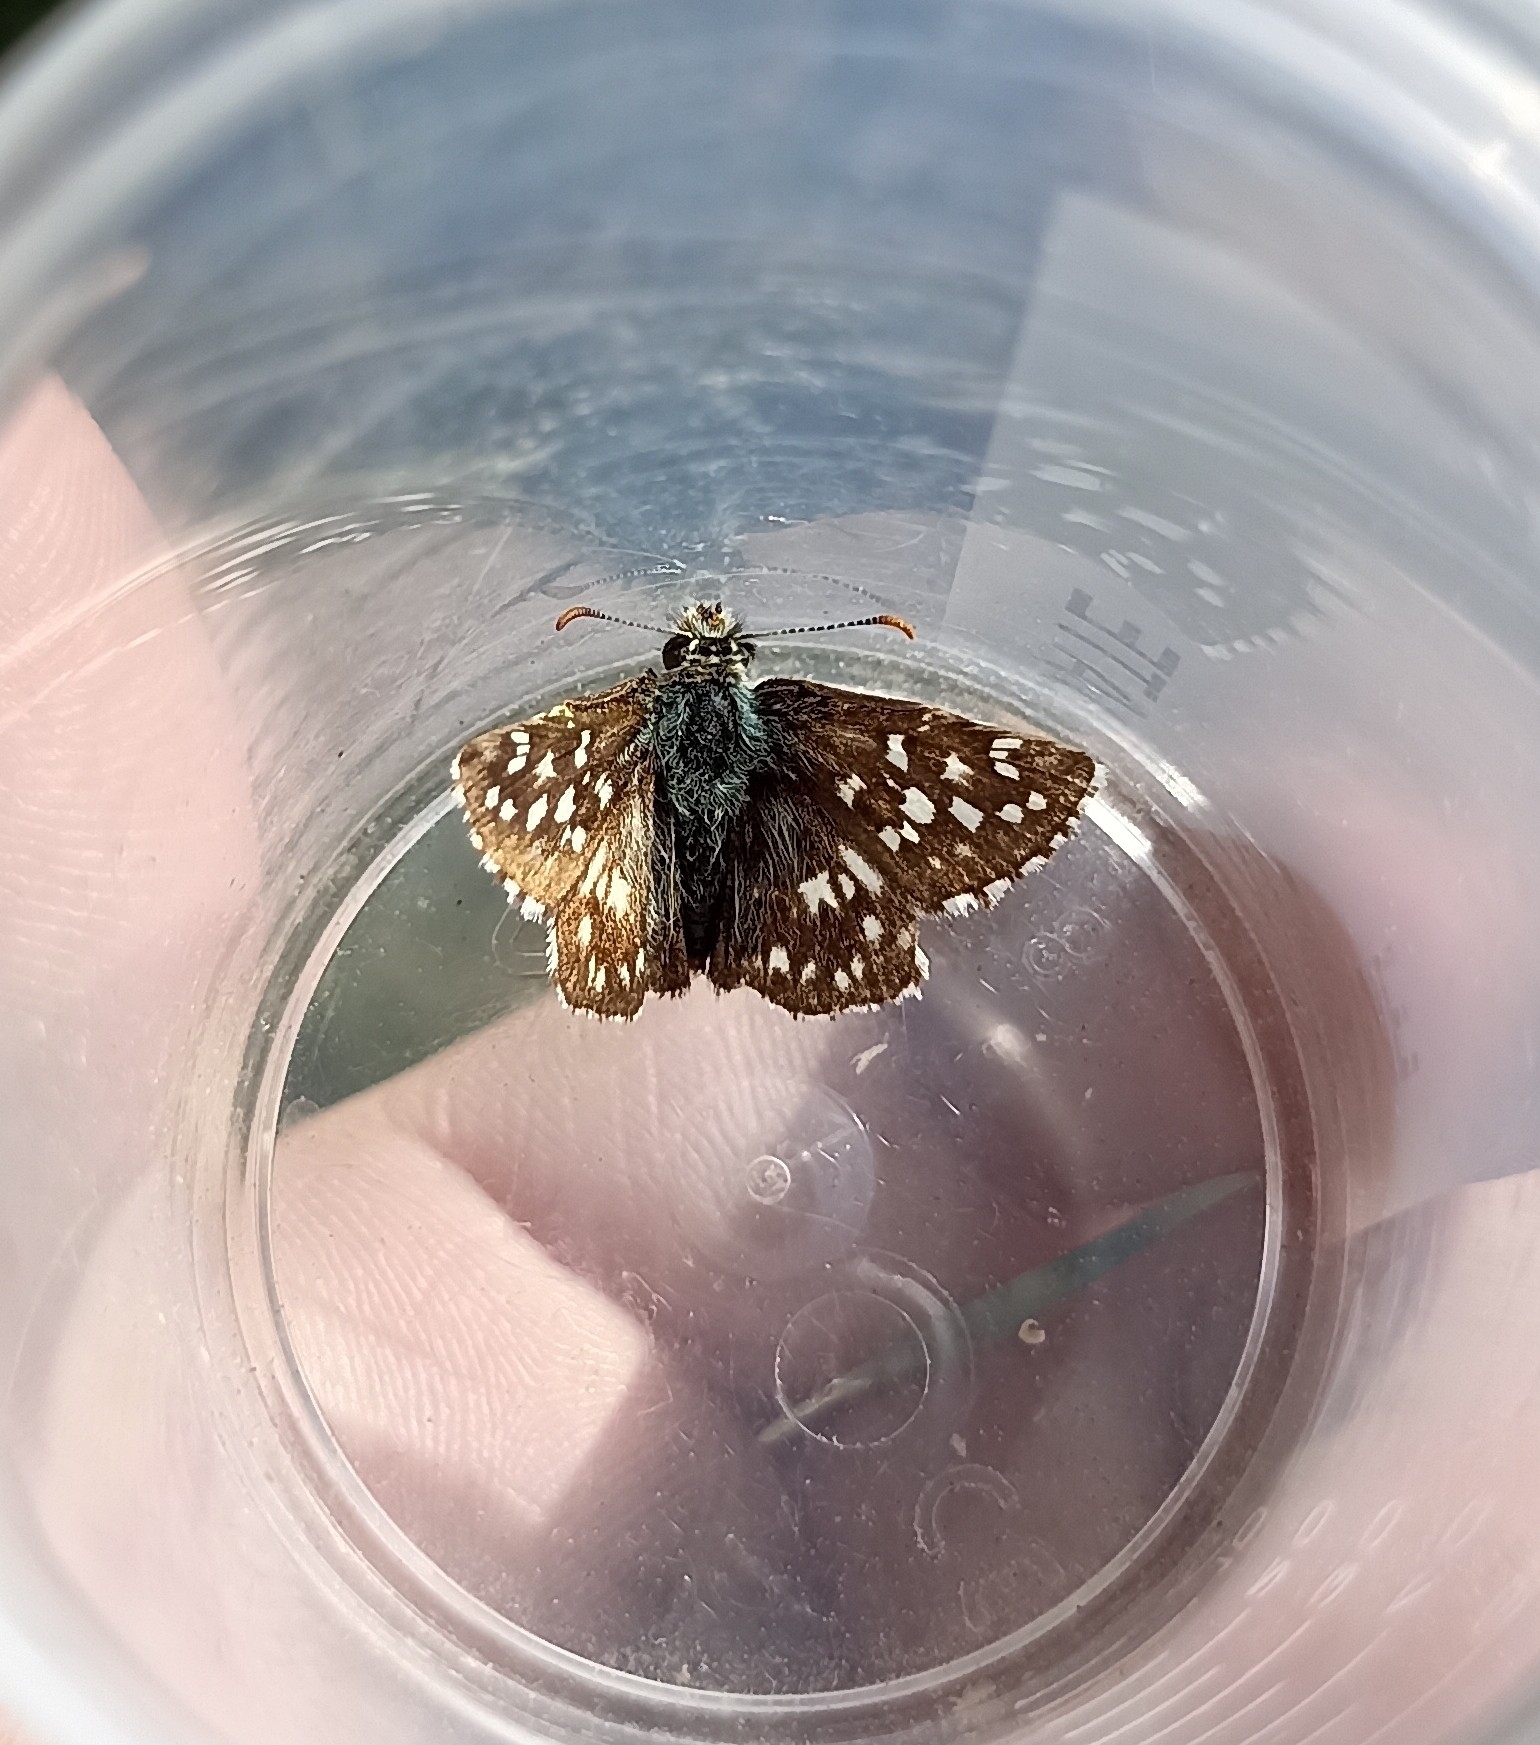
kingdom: Animalia
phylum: Arthropoda
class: Insecta
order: Lepidoptera
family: Hesperiidae
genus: Pyrgus
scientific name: Pyrgus malvoides
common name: Southern grizzled skipper
